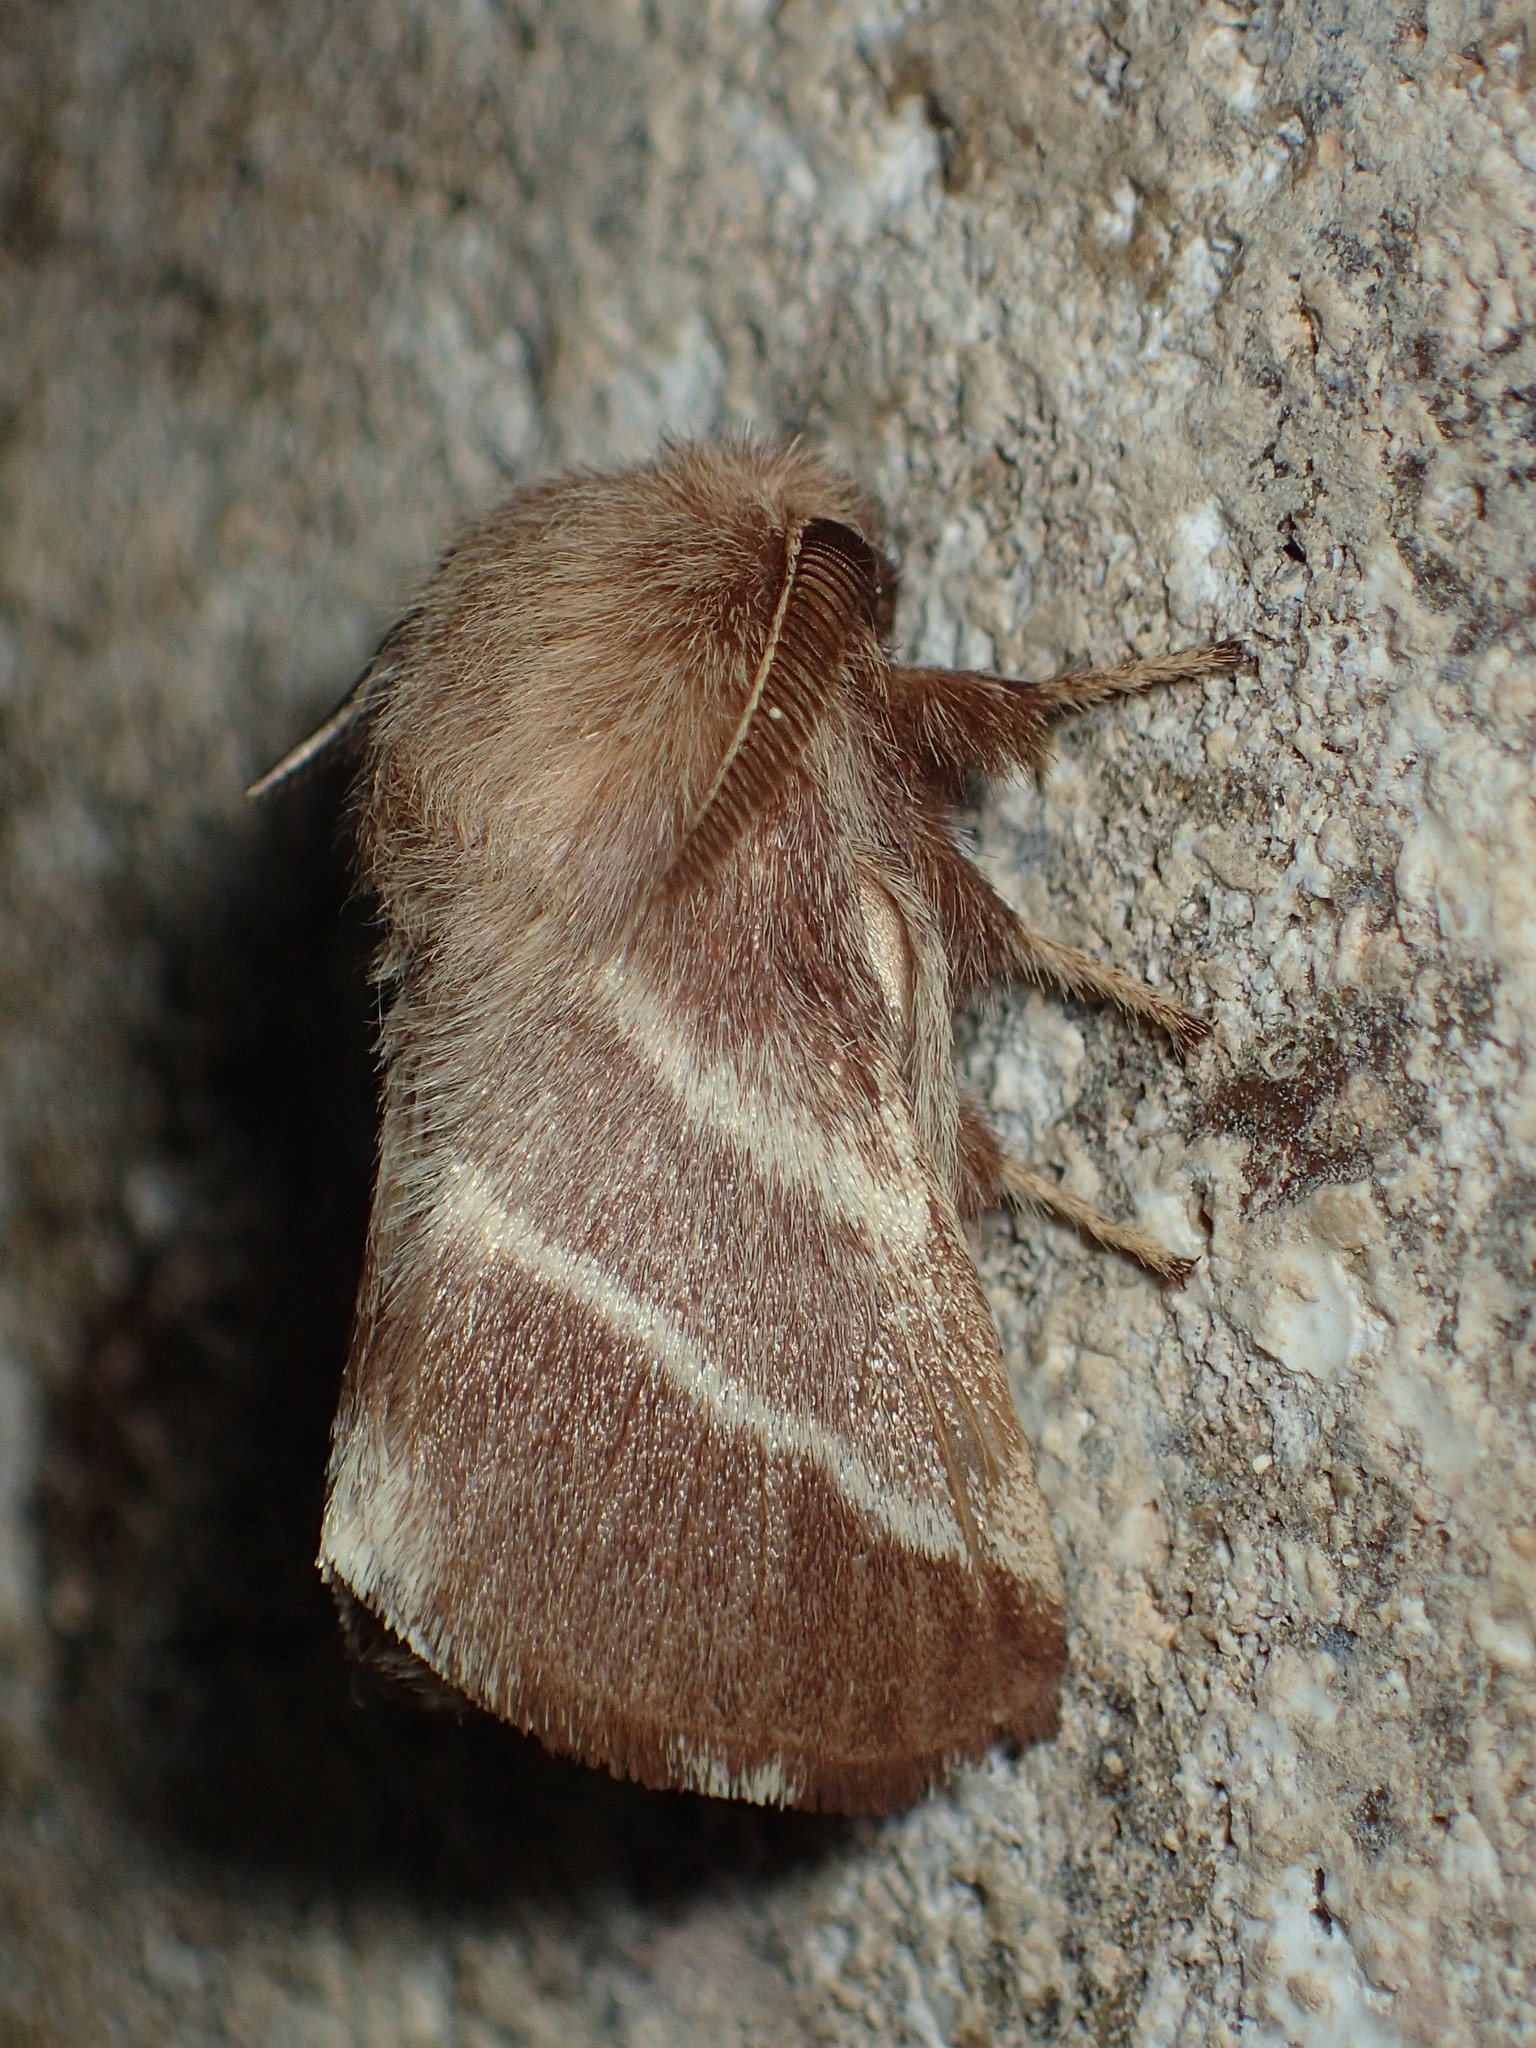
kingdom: Animalia
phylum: Arthropoda
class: Insecta
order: Lepidoptera
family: Lasiocampidae
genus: Malacosoma
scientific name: Malacosoma americana
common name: Eastern tent caterpillar moth
